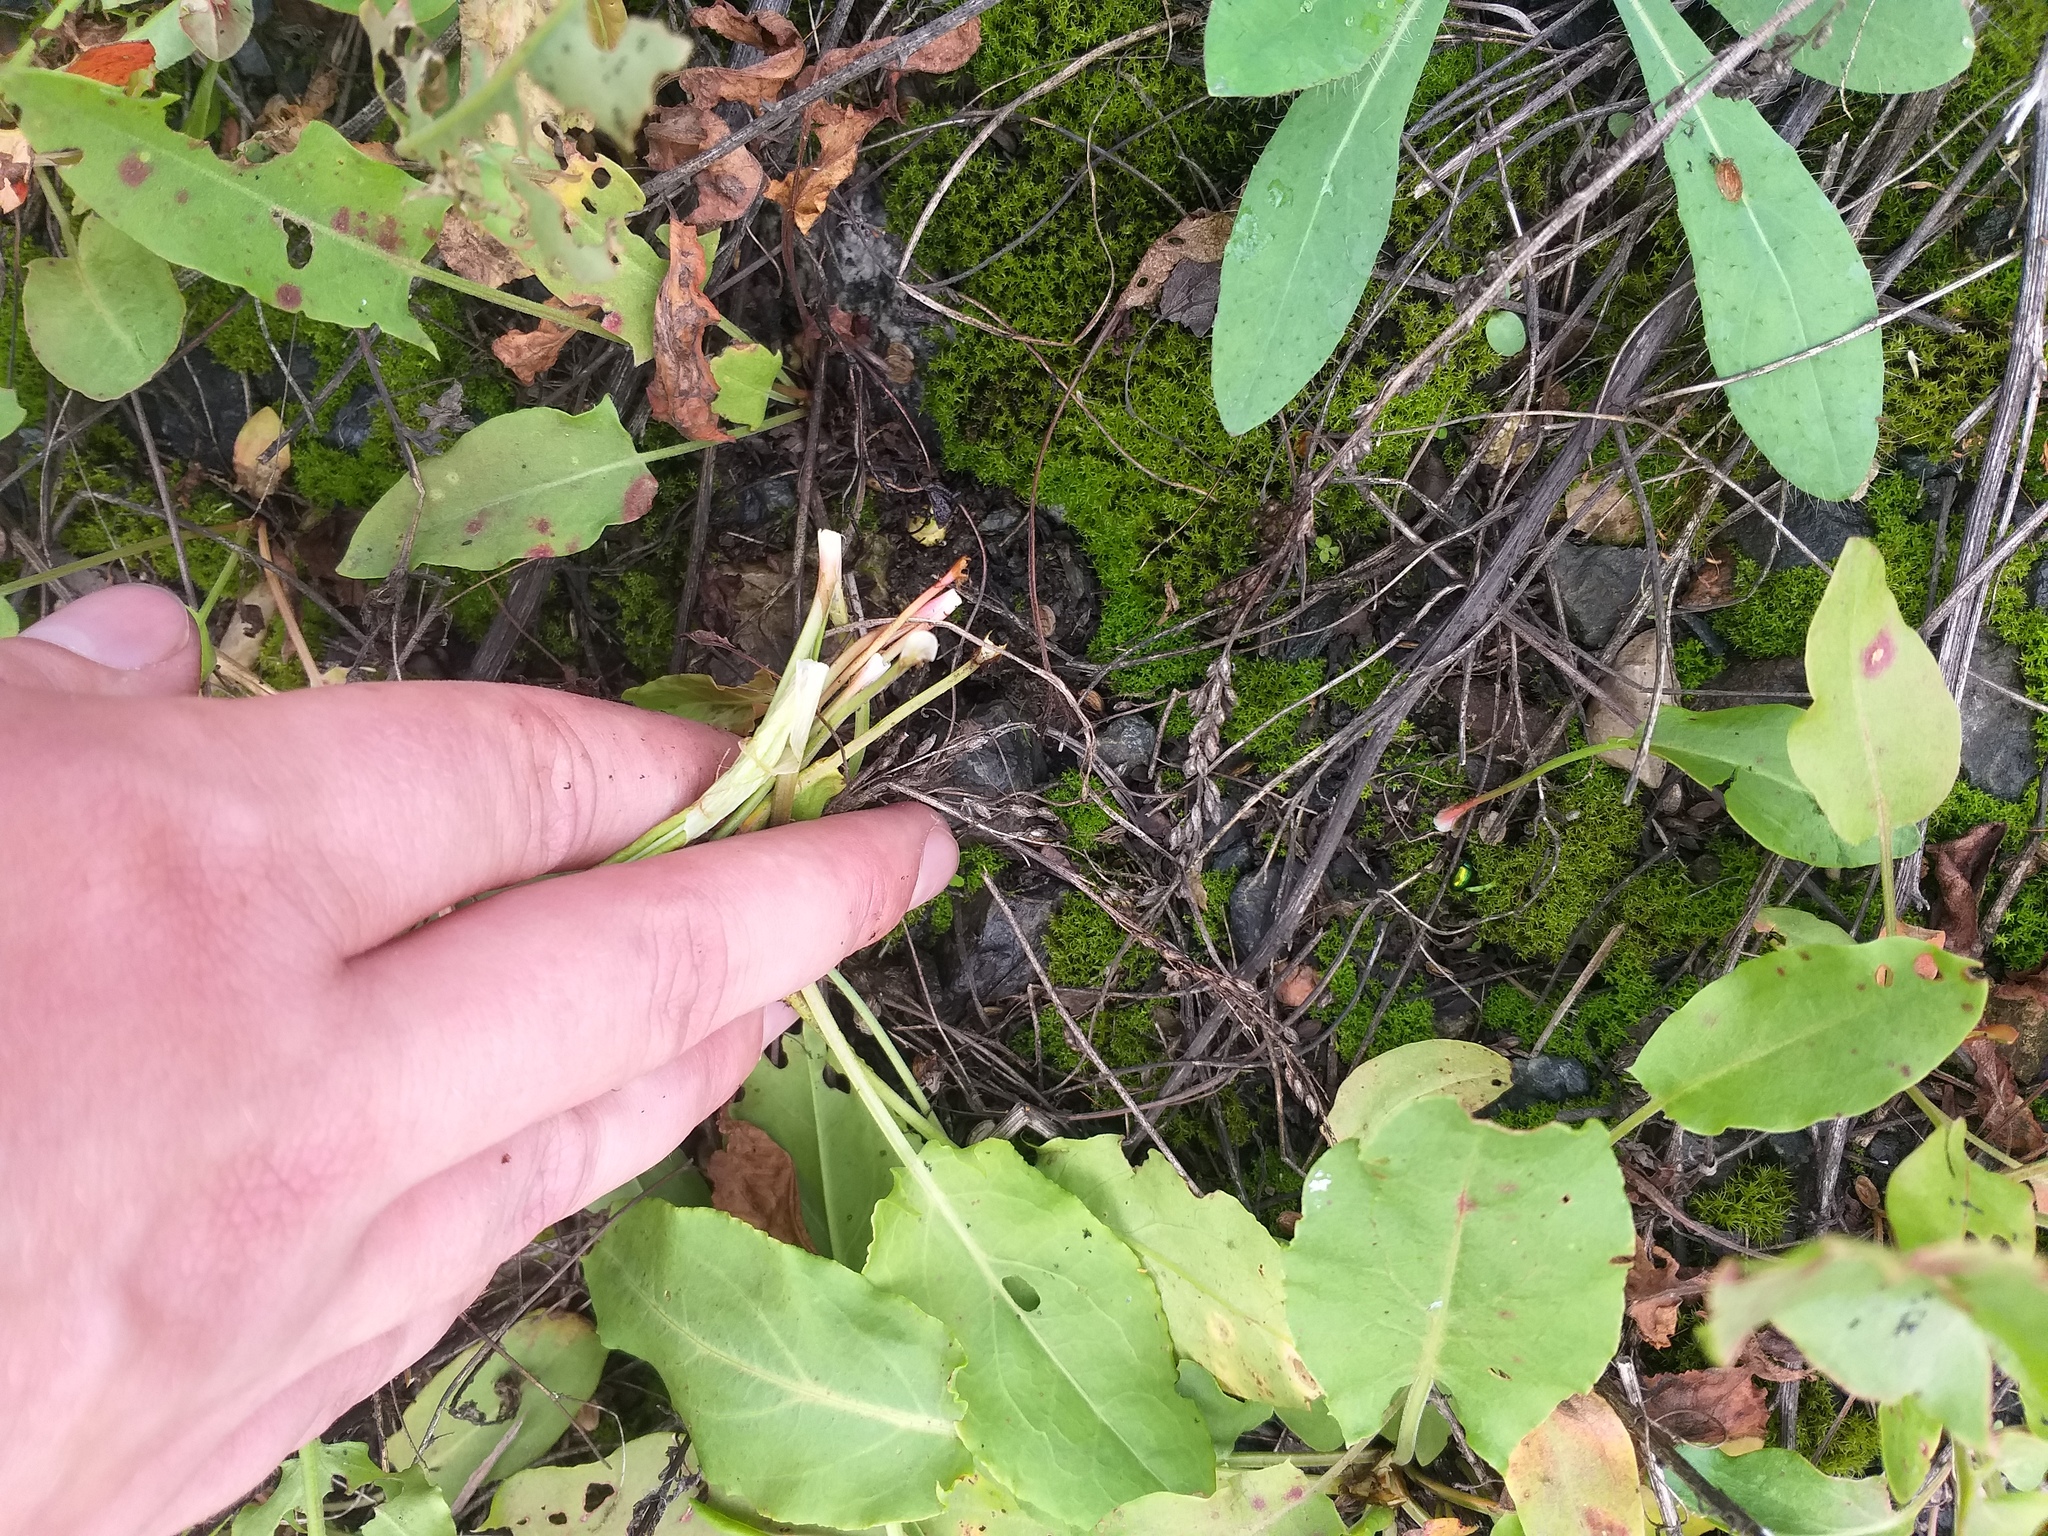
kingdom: Plantae
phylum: Tracheophyta
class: Magnoliopsida
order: Caryophyllales
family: Polygonaceae
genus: Rumex
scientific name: Rumex thyrsiflorus
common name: Garden sorrel
